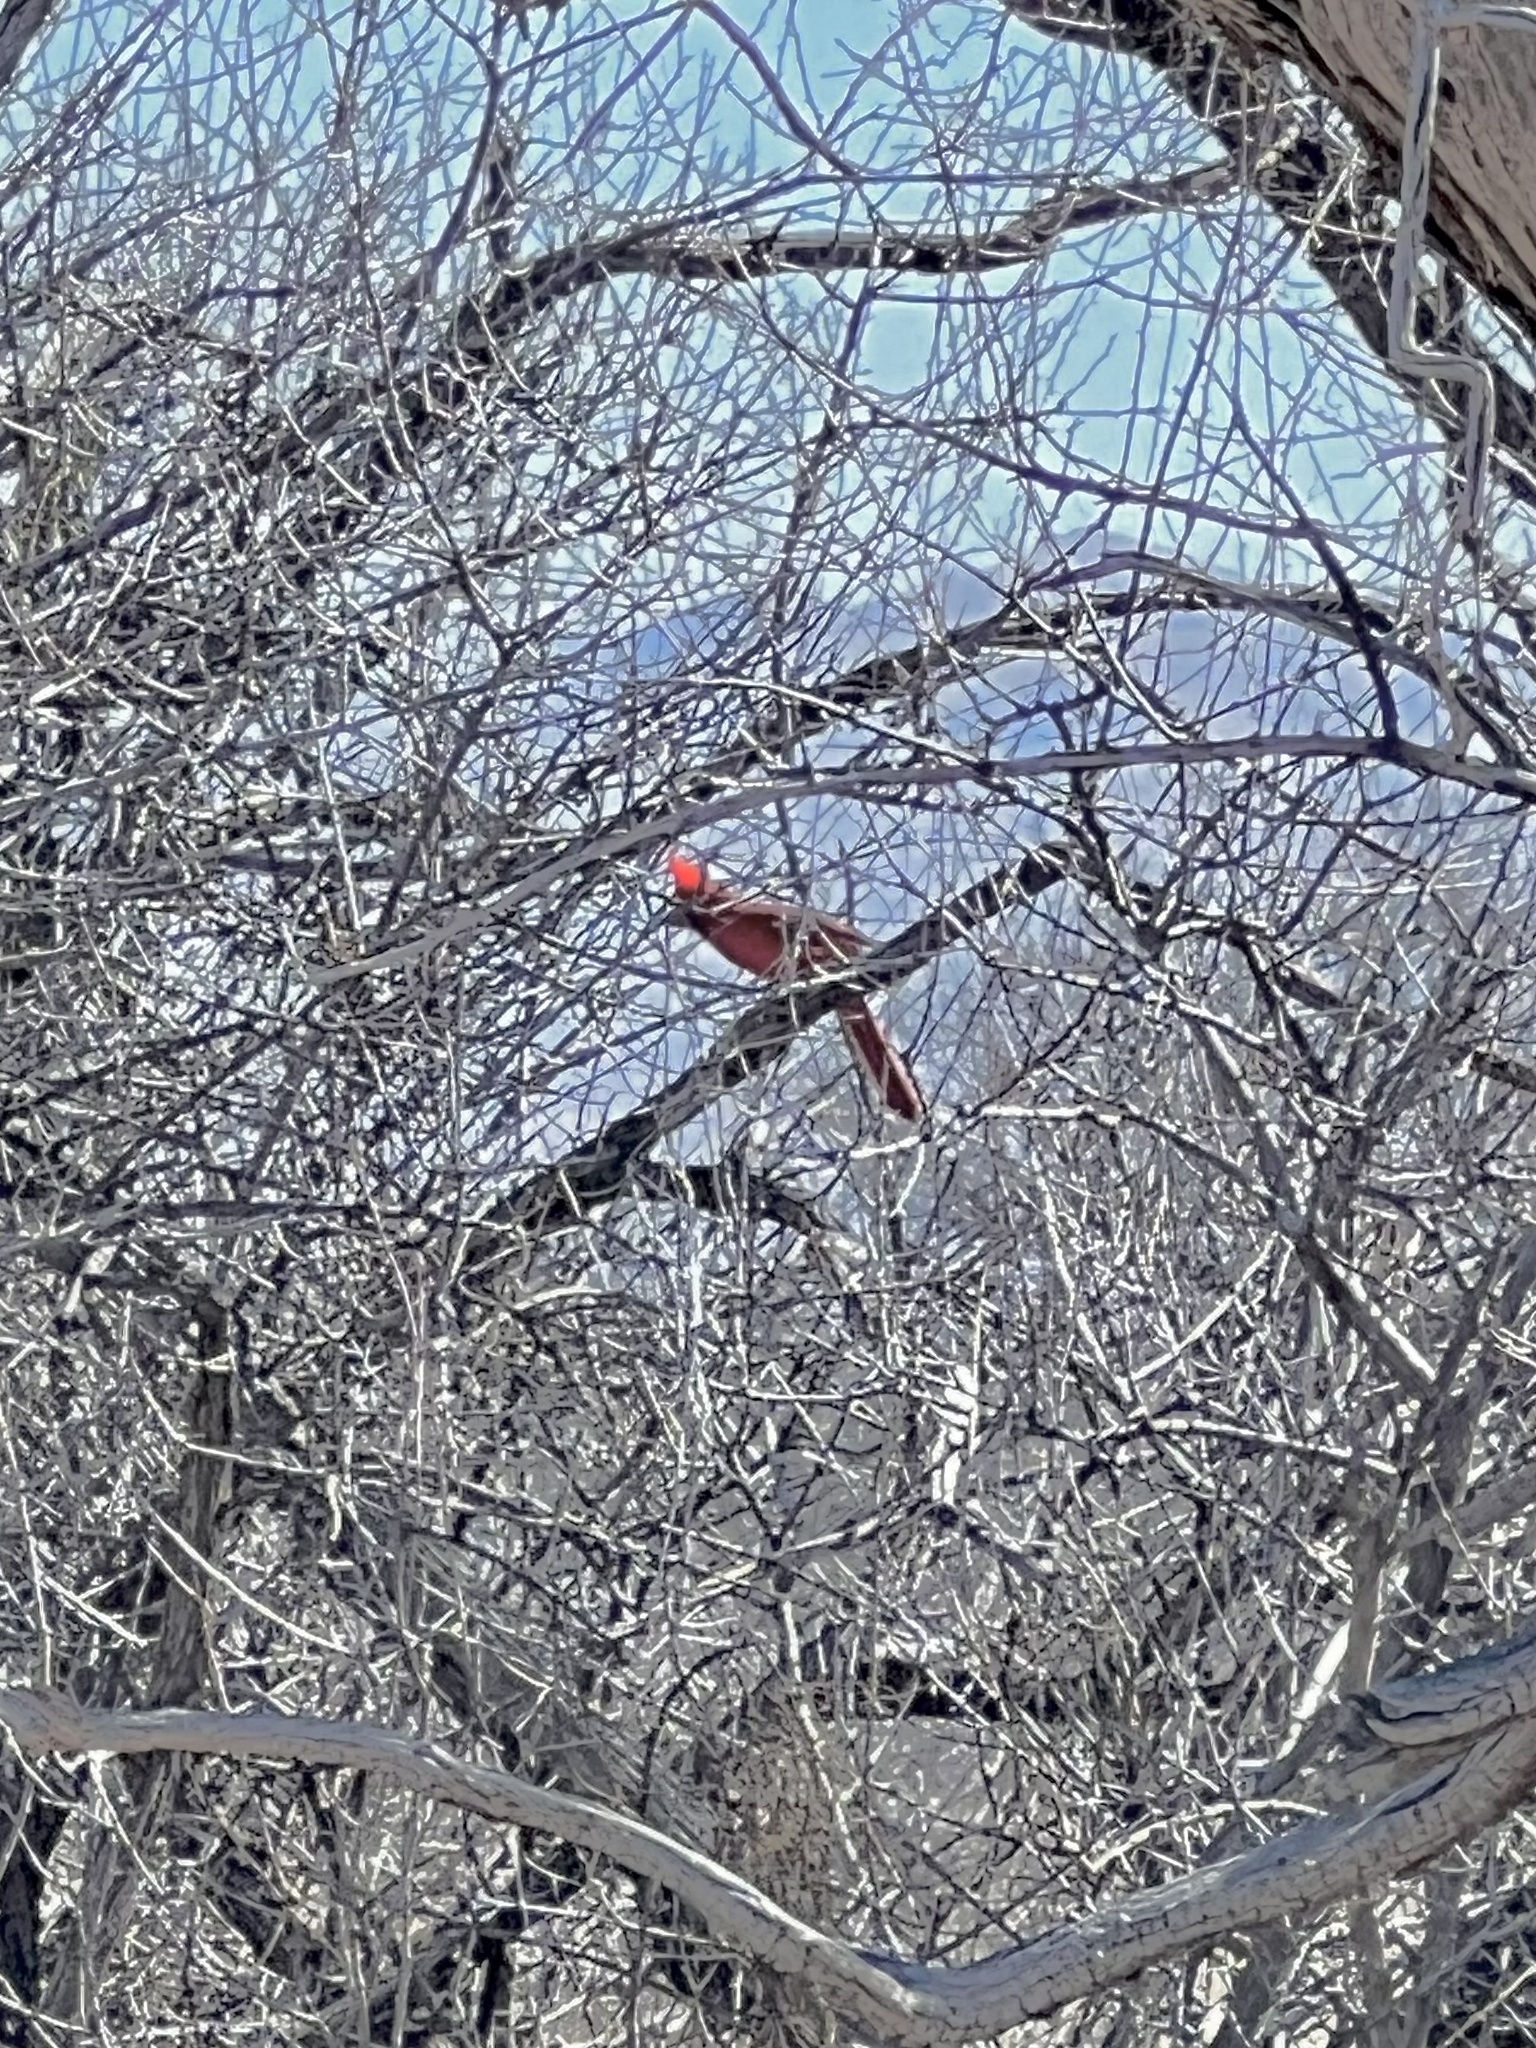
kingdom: Animalia
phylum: Chordata
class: Aves
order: Passeriformes
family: Cardinalidae
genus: Cardinalis
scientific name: Cardinalis cardinalis
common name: Northern cardinal
